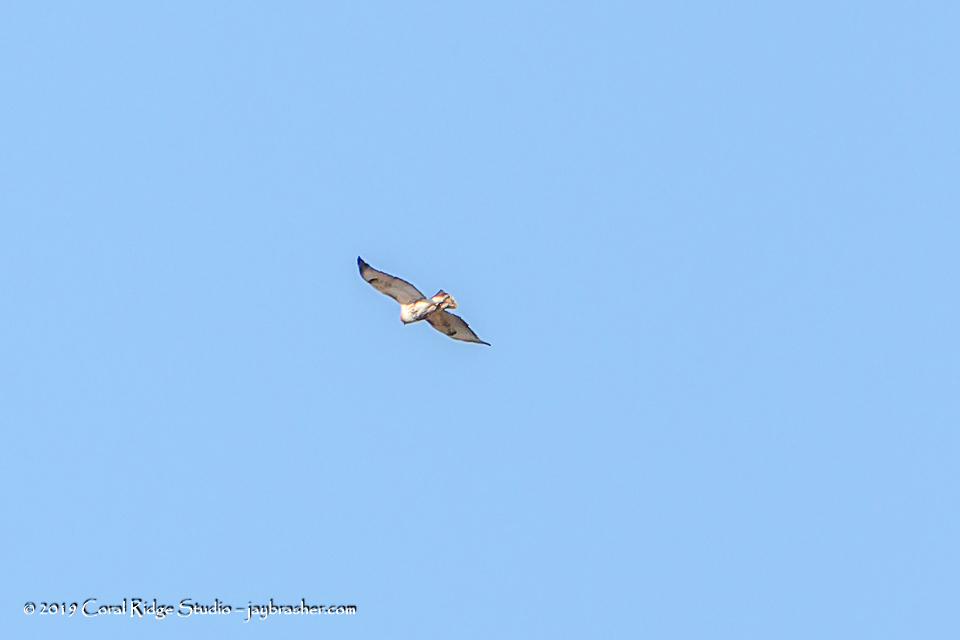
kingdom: Animalia
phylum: Chordata
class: Aves
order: Accipitriformes
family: Accipitridae
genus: Buteo
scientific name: Buteo jamaicensis
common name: Red-tailed hawk
